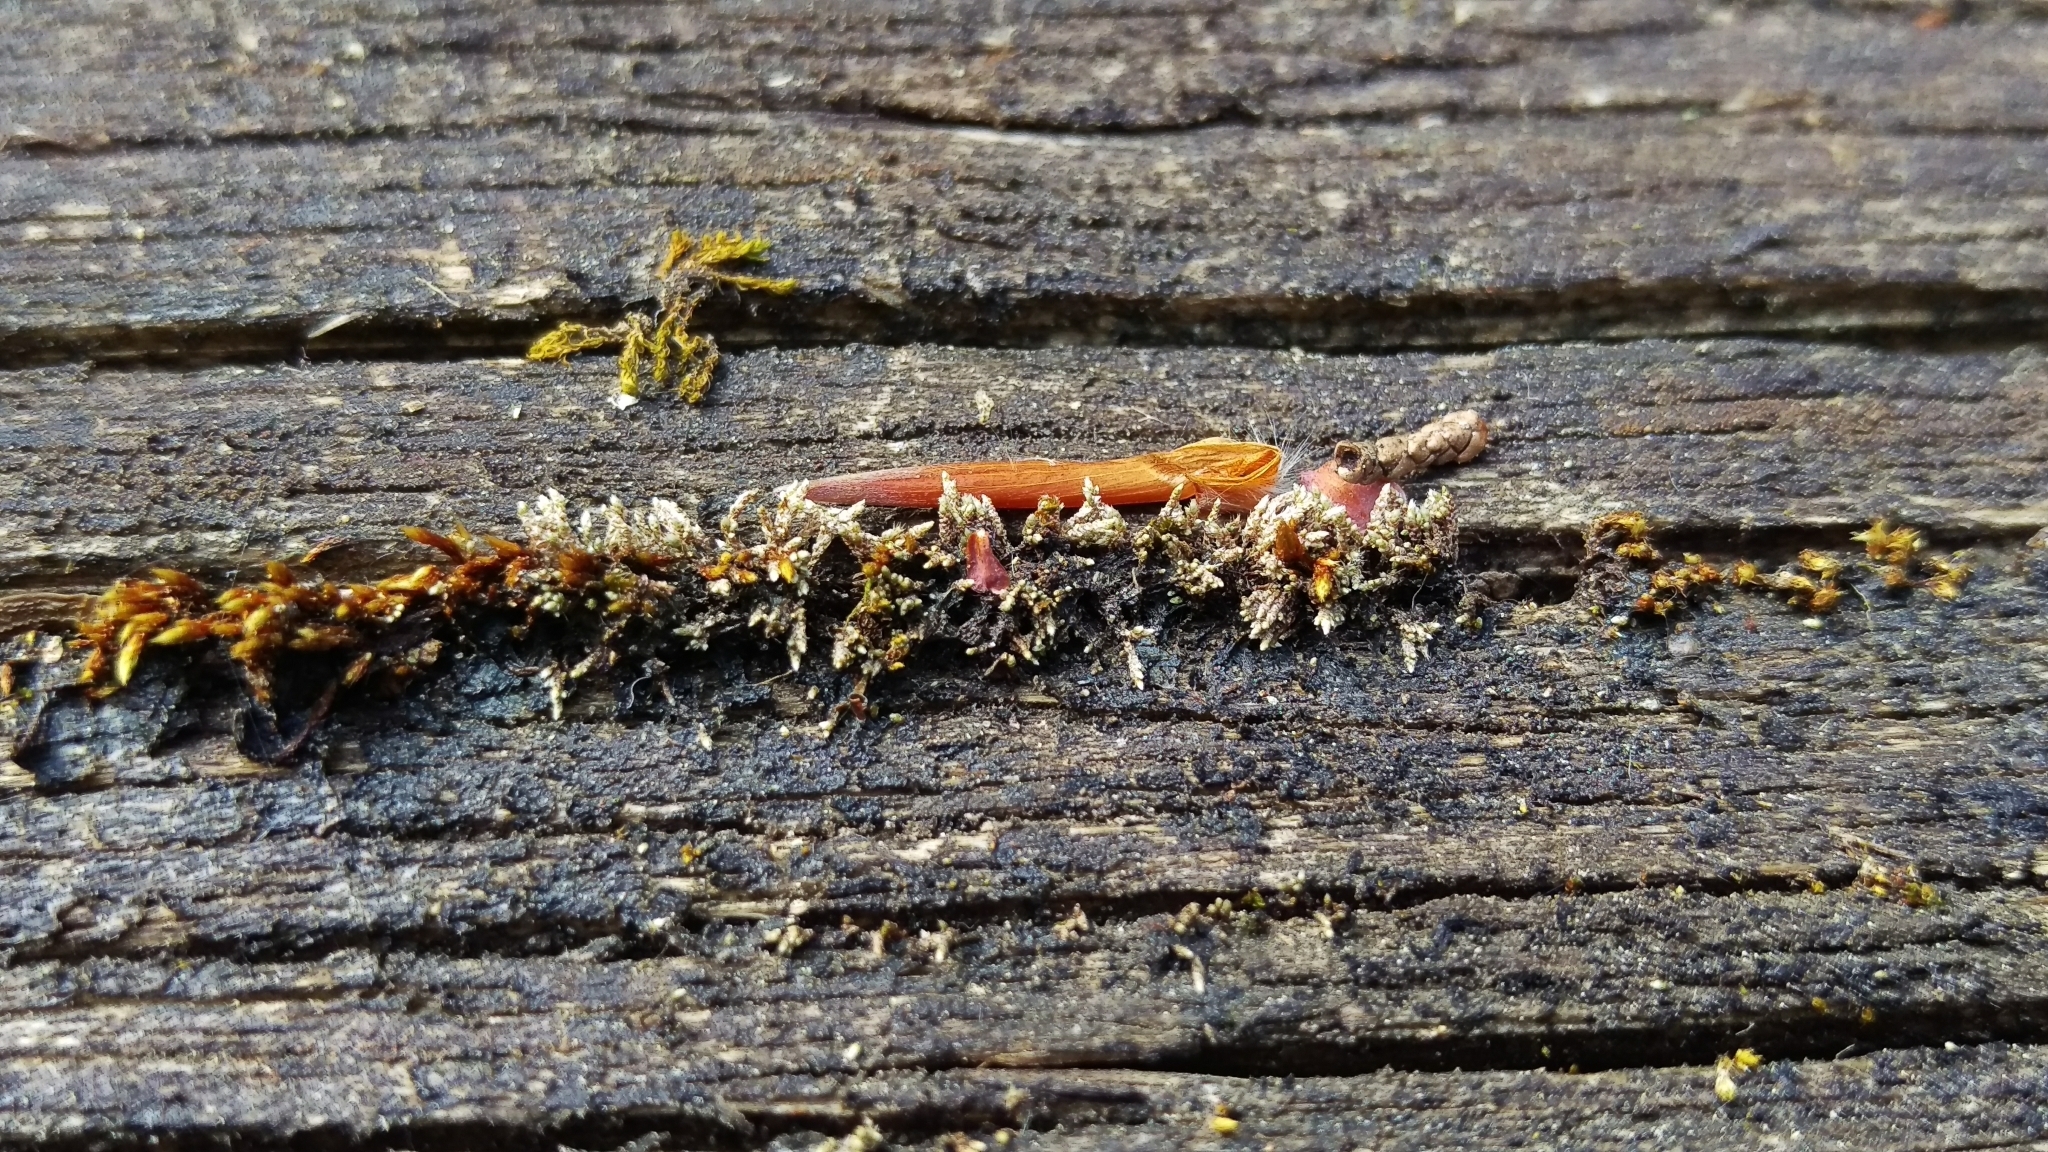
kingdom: Plantae
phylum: Bryophyta
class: Bryopsida
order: Bryales
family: Bryaceae
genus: Bryum
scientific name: Bryum argenteum
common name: Silver-moss
